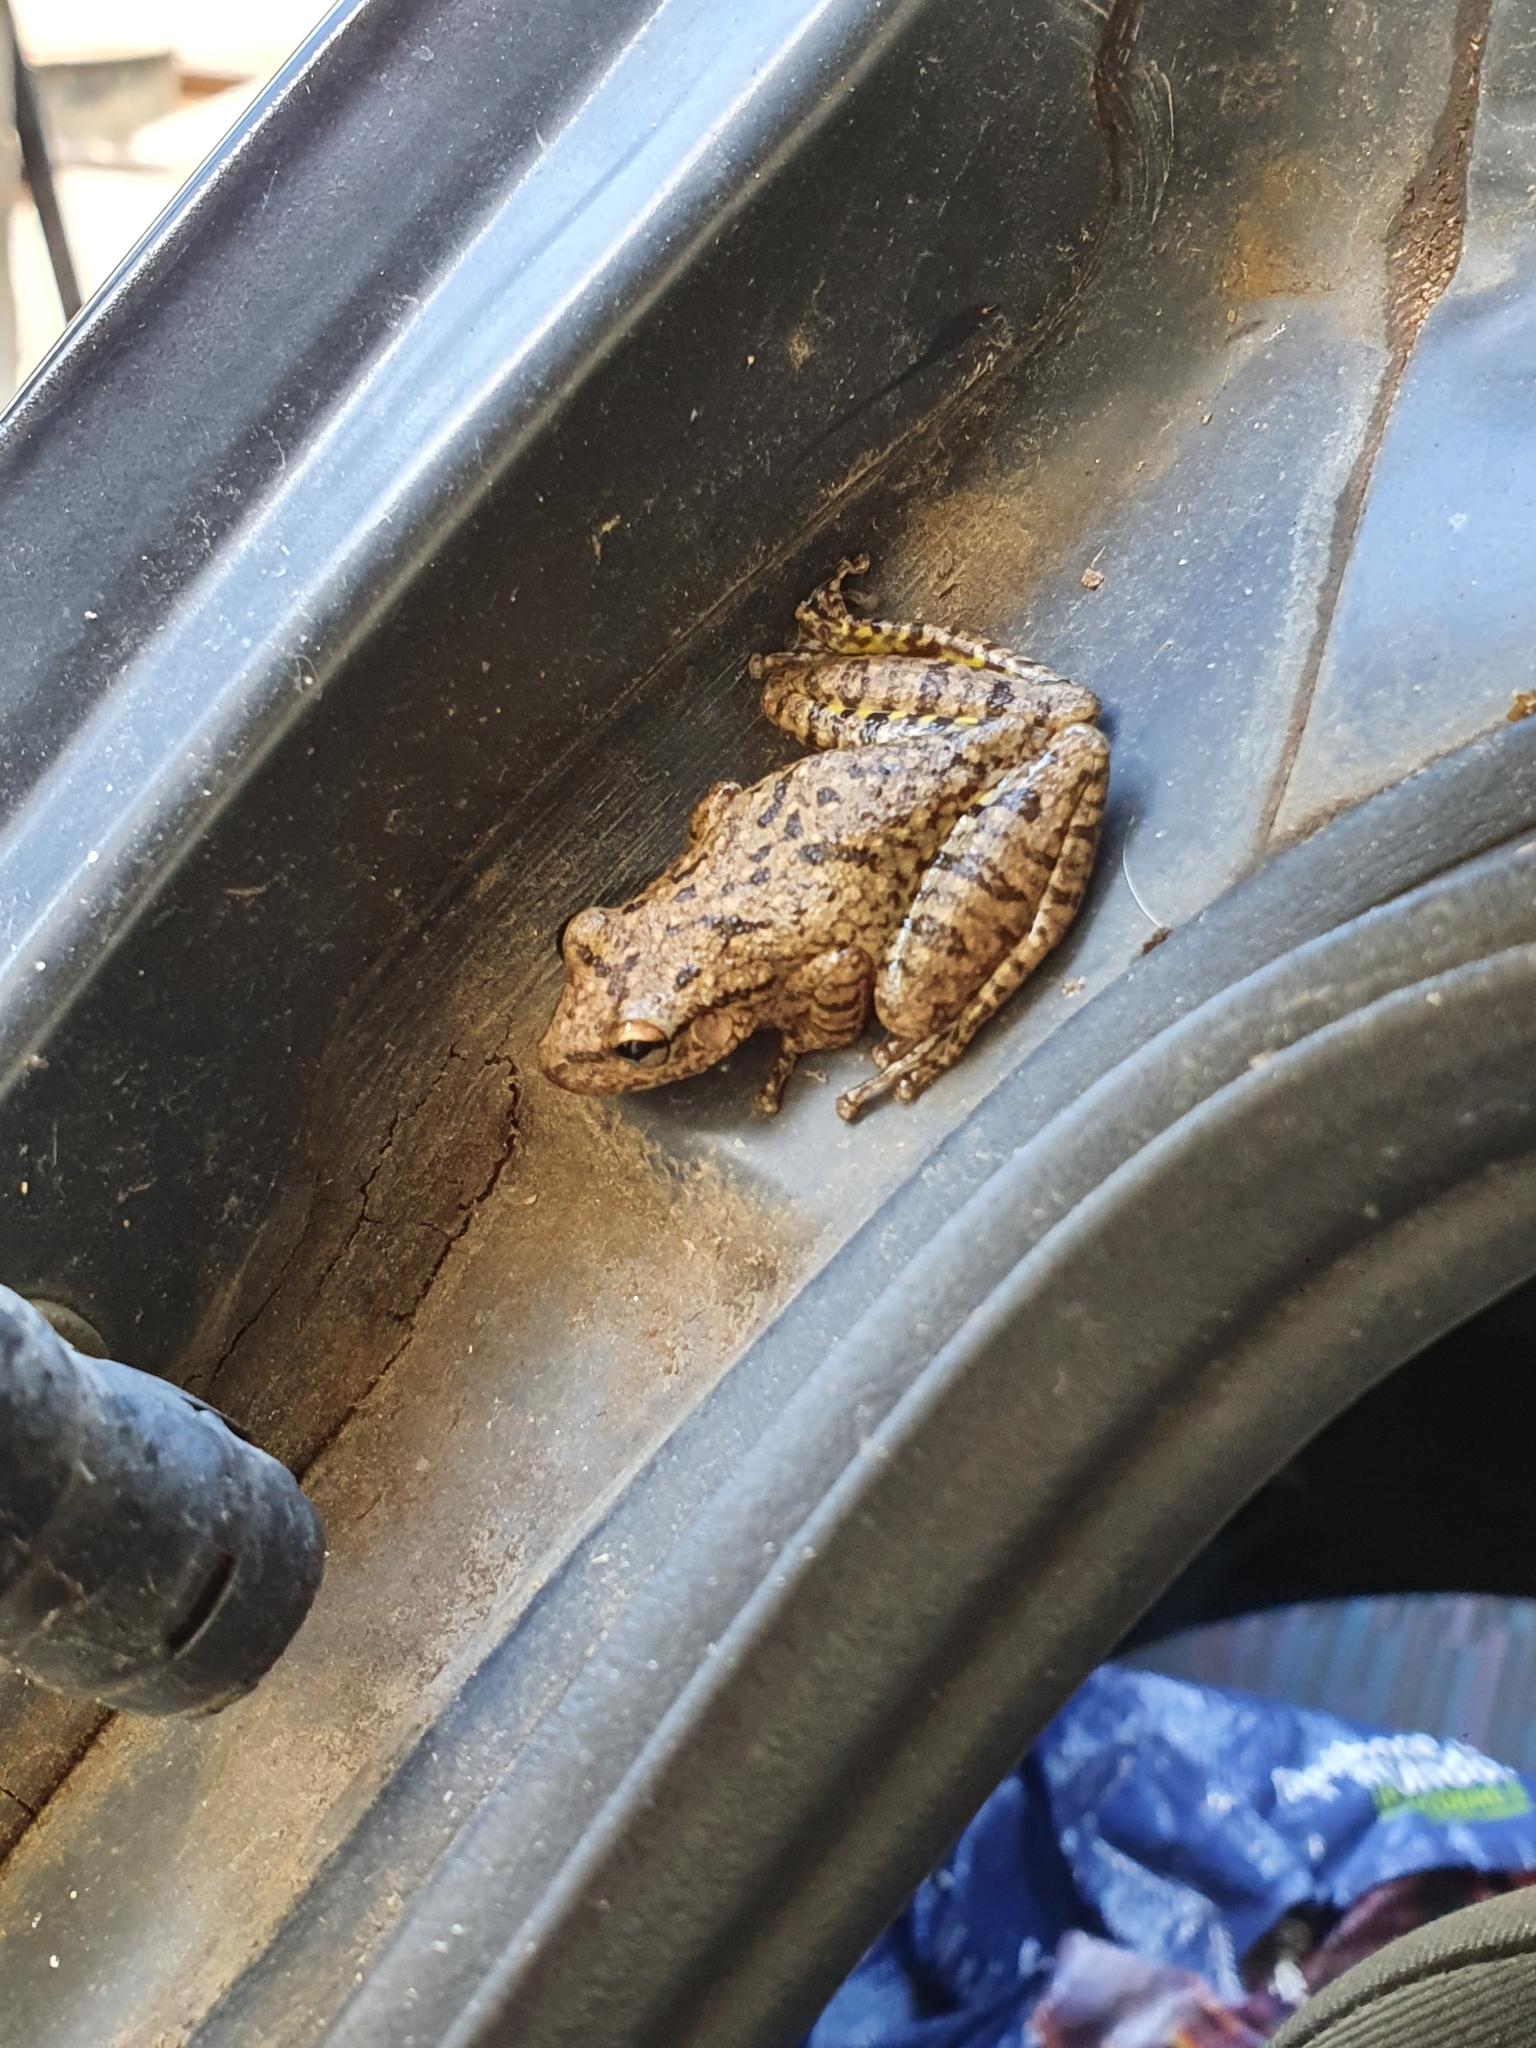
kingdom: Animalia
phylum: Chordata
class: Amphibia
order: Anura
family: Hylidae
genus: Scinax
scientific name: Scinax fuscovarius
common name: Fuscous-blotched treefrog
